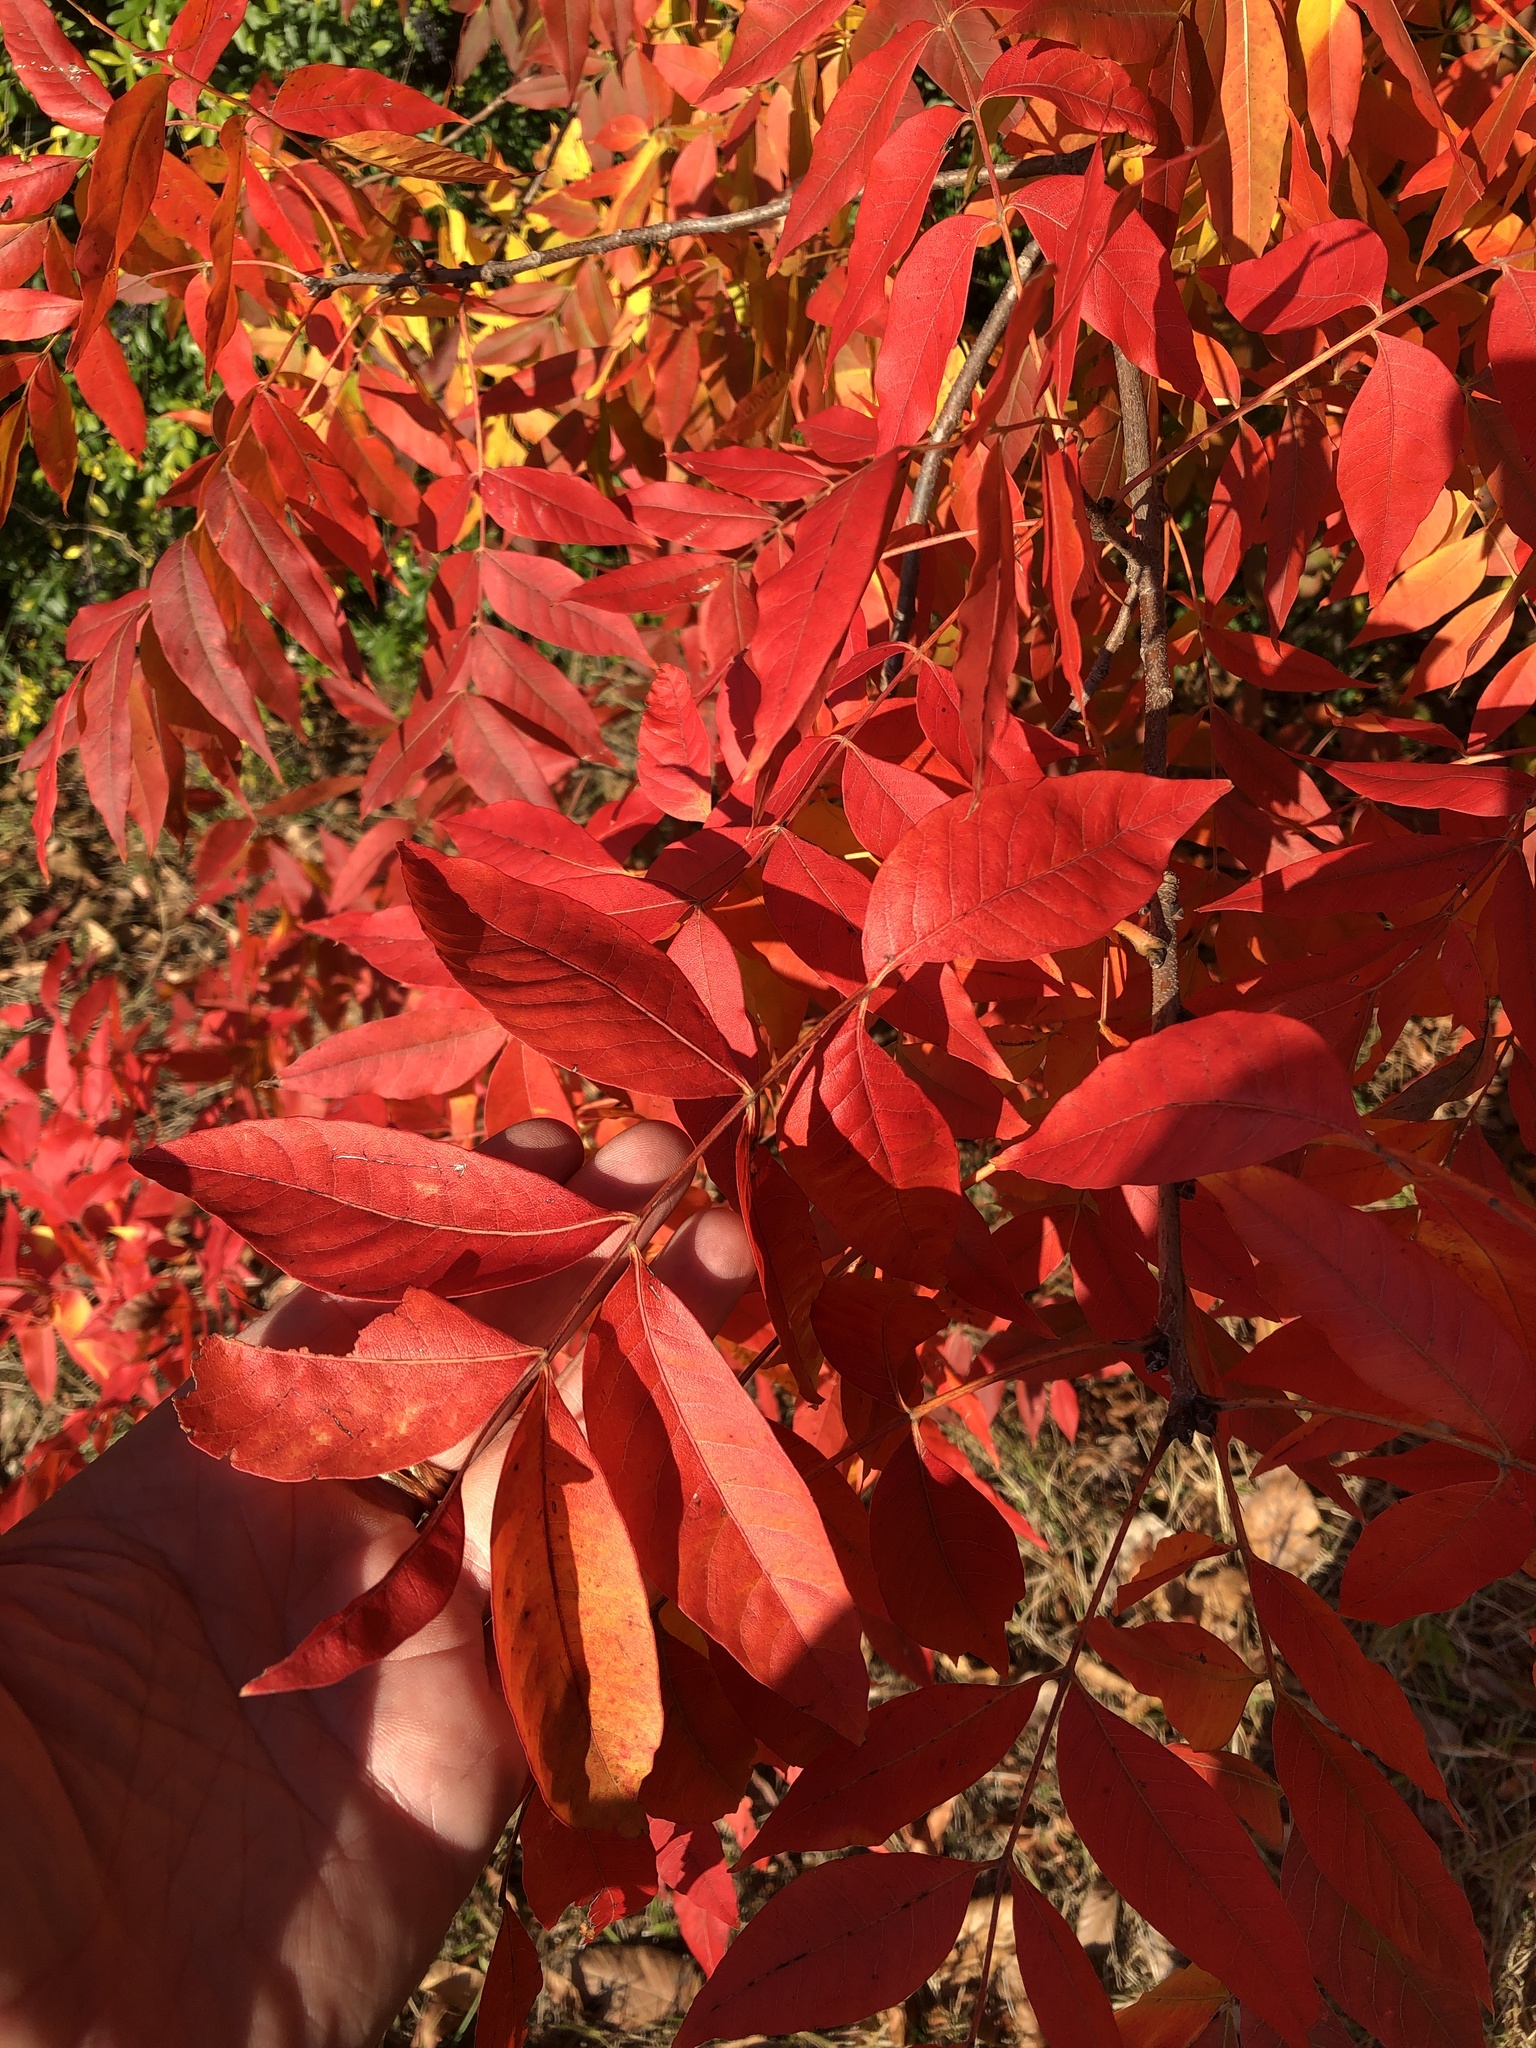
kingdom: Plantae
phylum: Tracheophyta
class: Magnoliopsida
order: Sapindales
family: Anacardiaceae
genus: Pistacia
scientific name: Pistacia chinensis
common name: Chinese pistache
